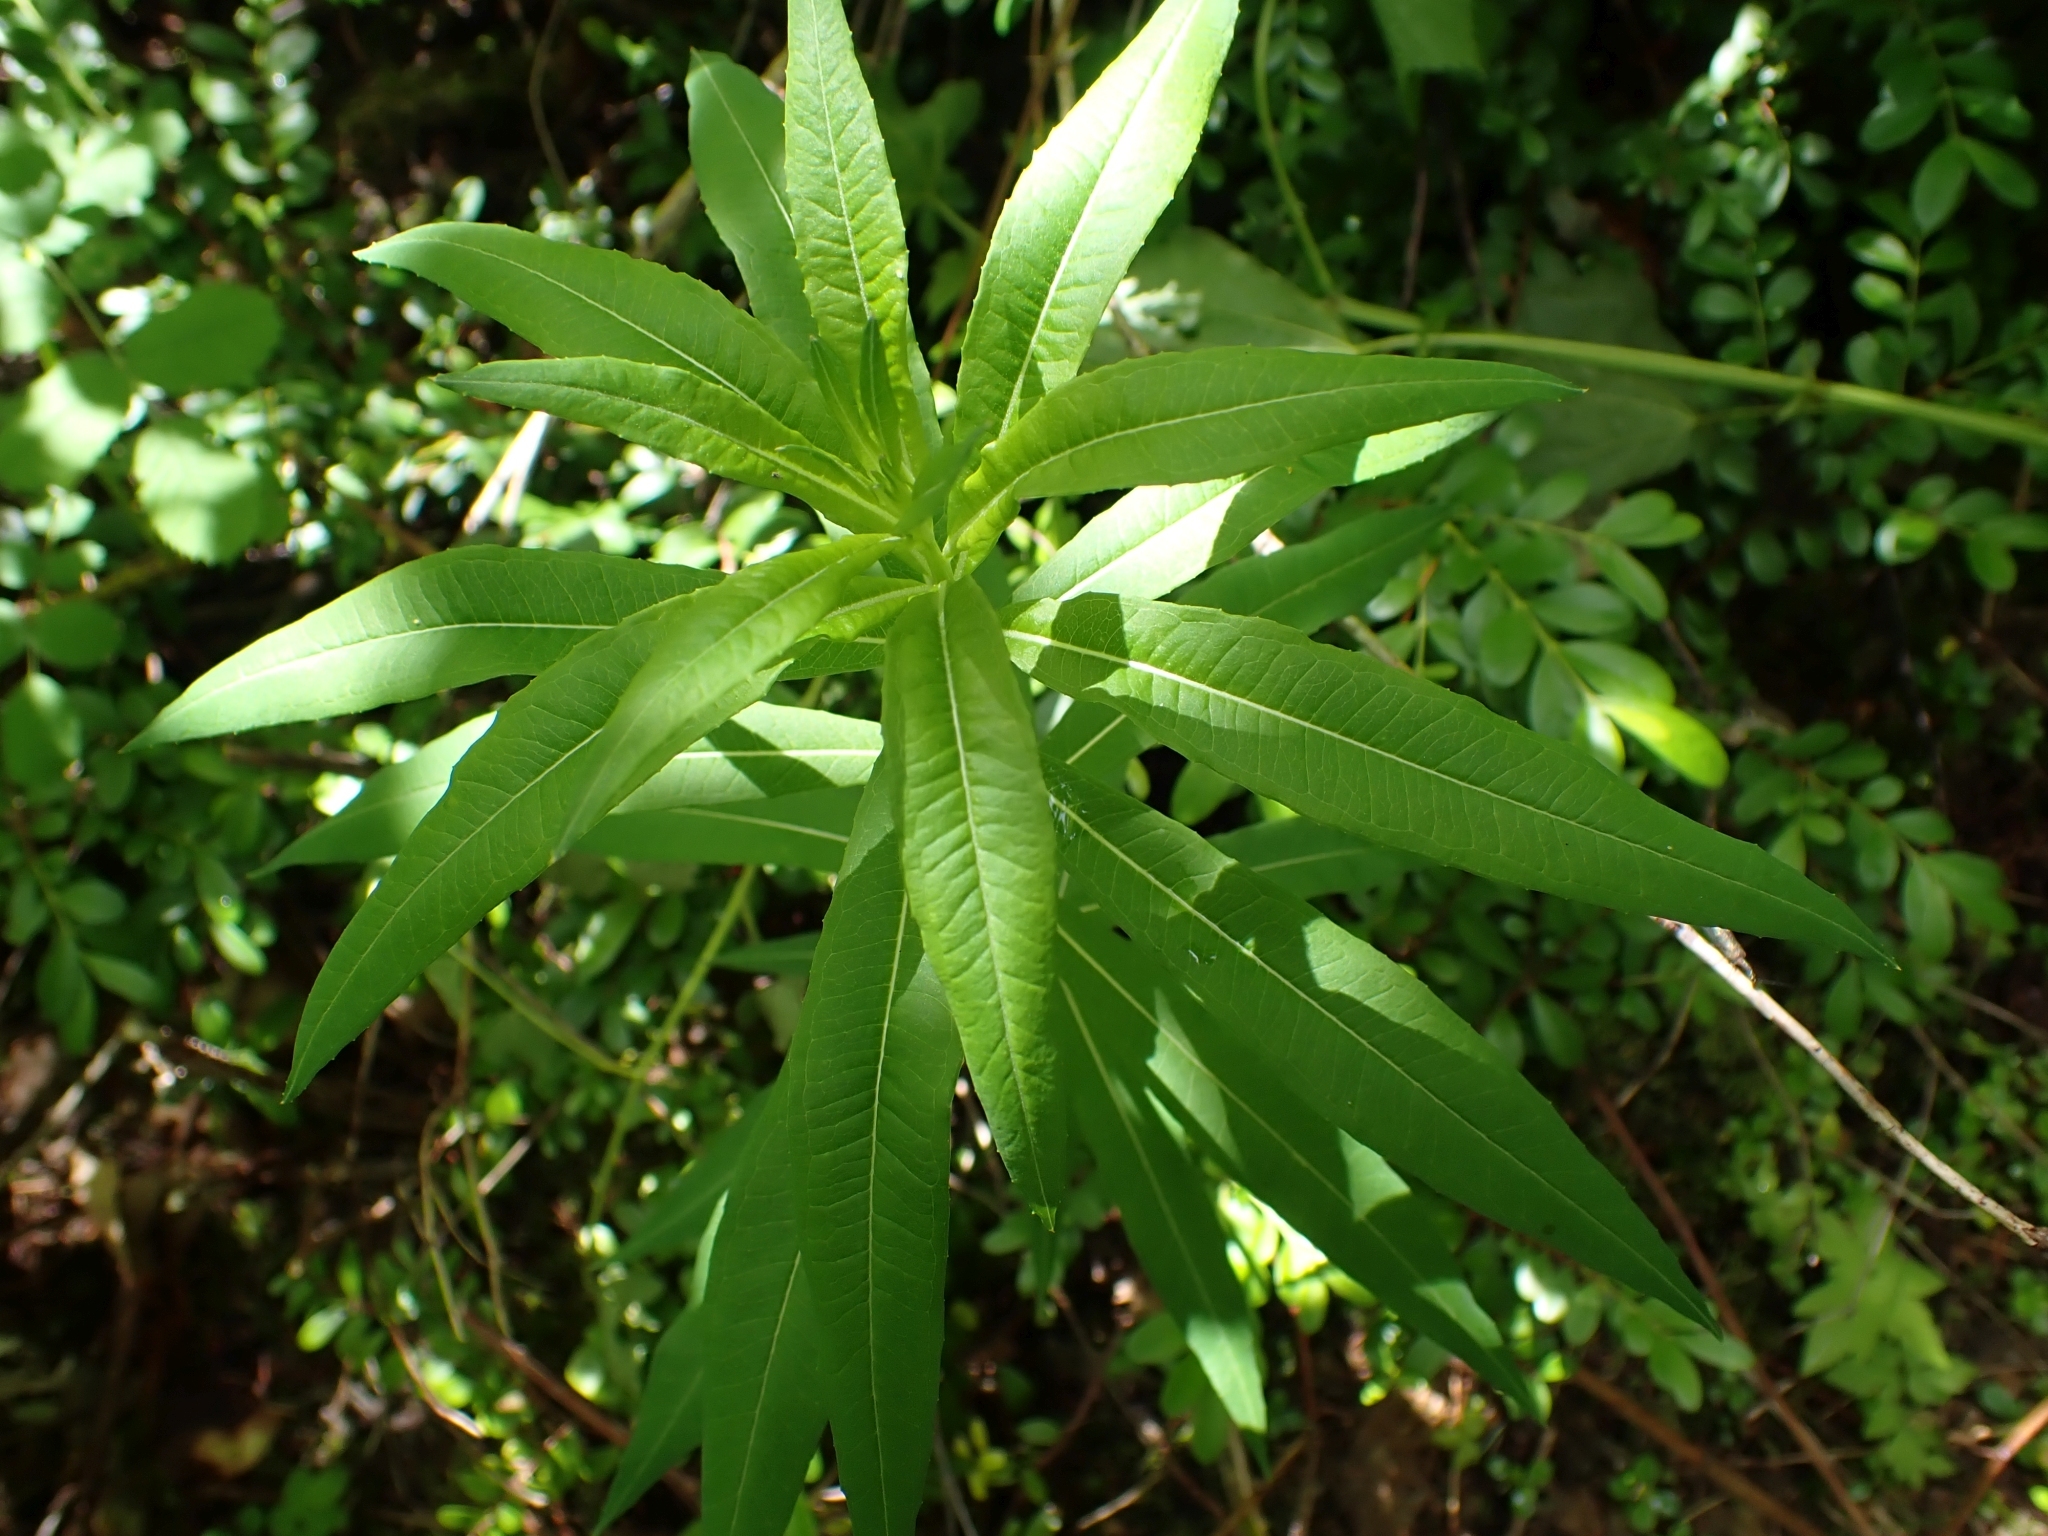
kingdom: Plantae
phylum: Tracheophyta
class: Magnoliopsida
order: Myrtales
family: Onagraceae
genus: Chamaenerion
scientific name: Chamaenerion angustifolium
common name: Fireweed
